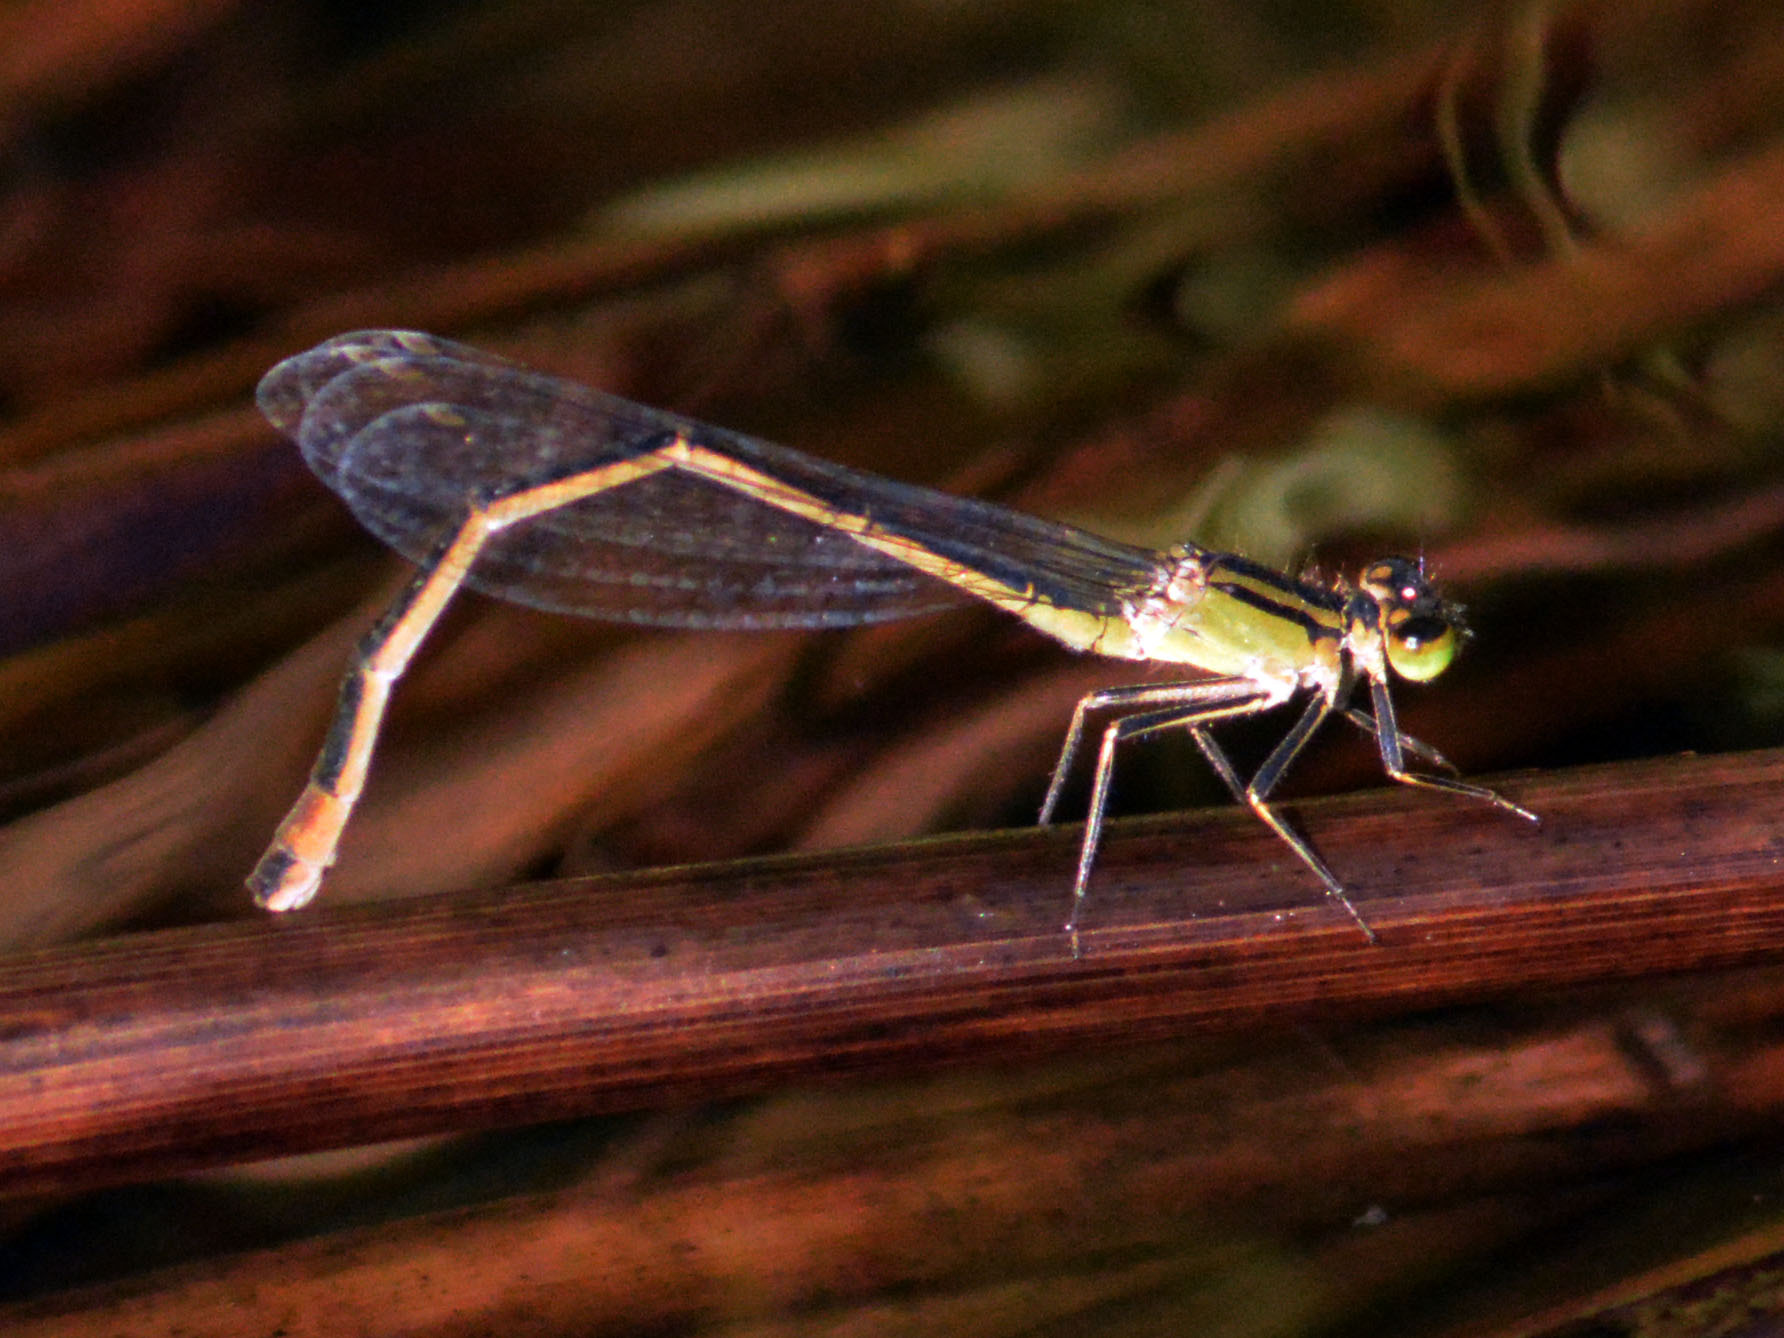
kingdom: Animalia
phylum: Arthropoda
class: Insecta
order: Odonata
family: Coenagrionidae
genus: Ischnura
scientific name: Ischnura elegans
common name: Blue-tailed damselfly
